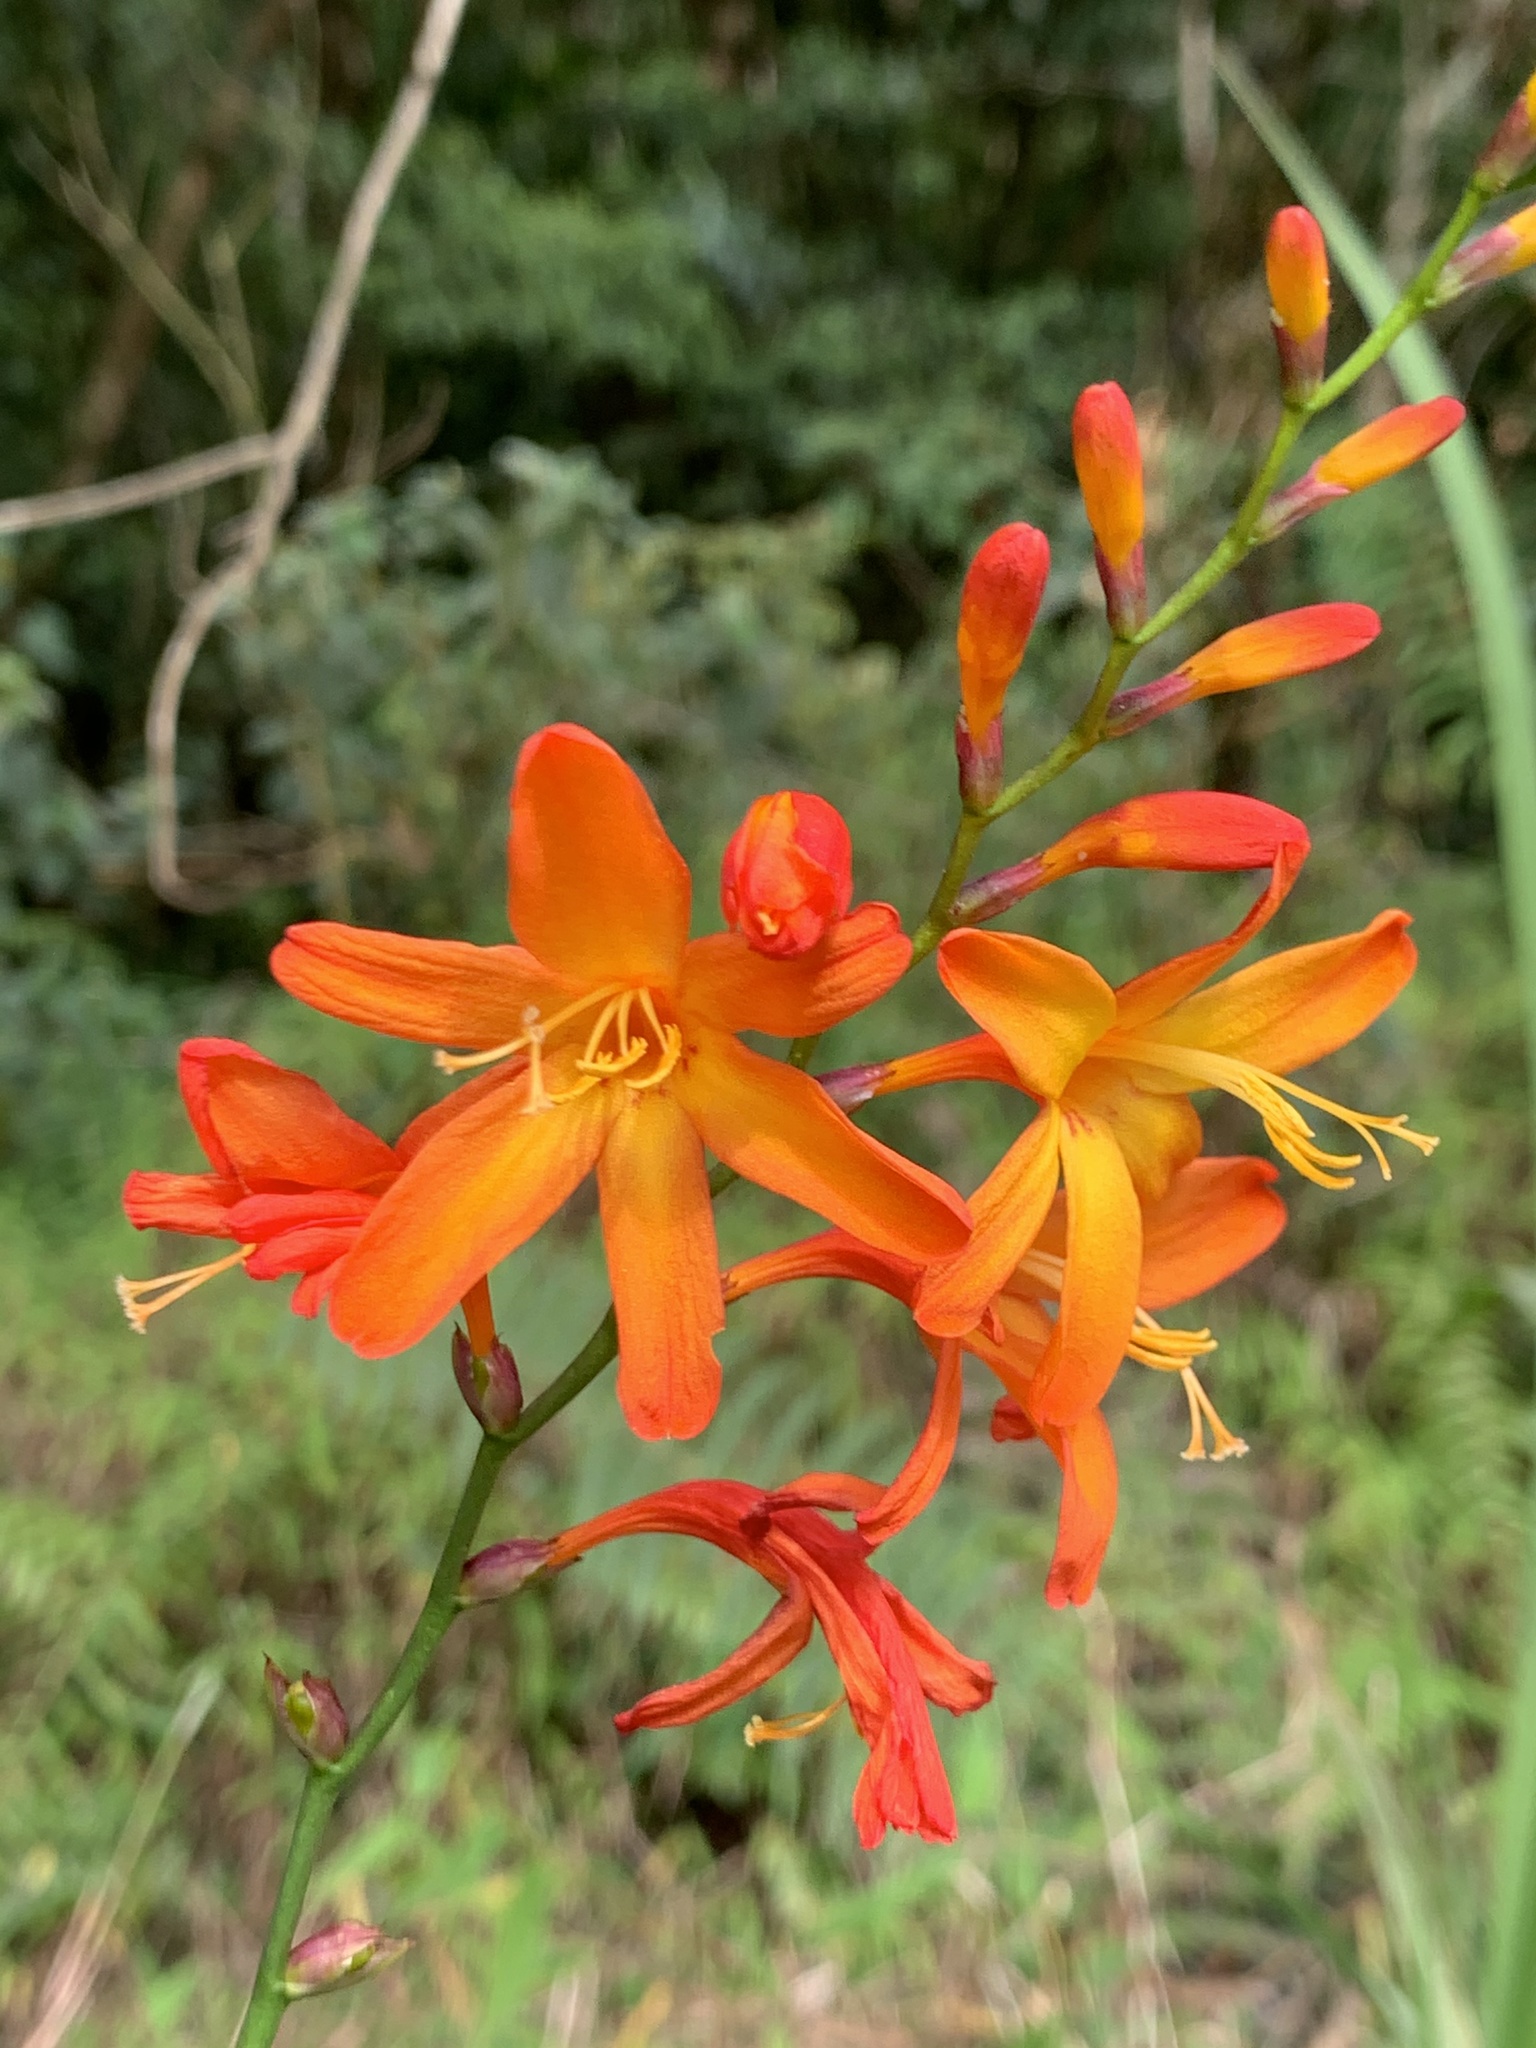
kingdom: Plantae
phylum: Tracheophyta
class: Liliopsida
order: Asparagales
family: Iridaceae
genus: Crocosmia
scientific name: Crocosmia crocosmiiflora
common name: Montbretia
